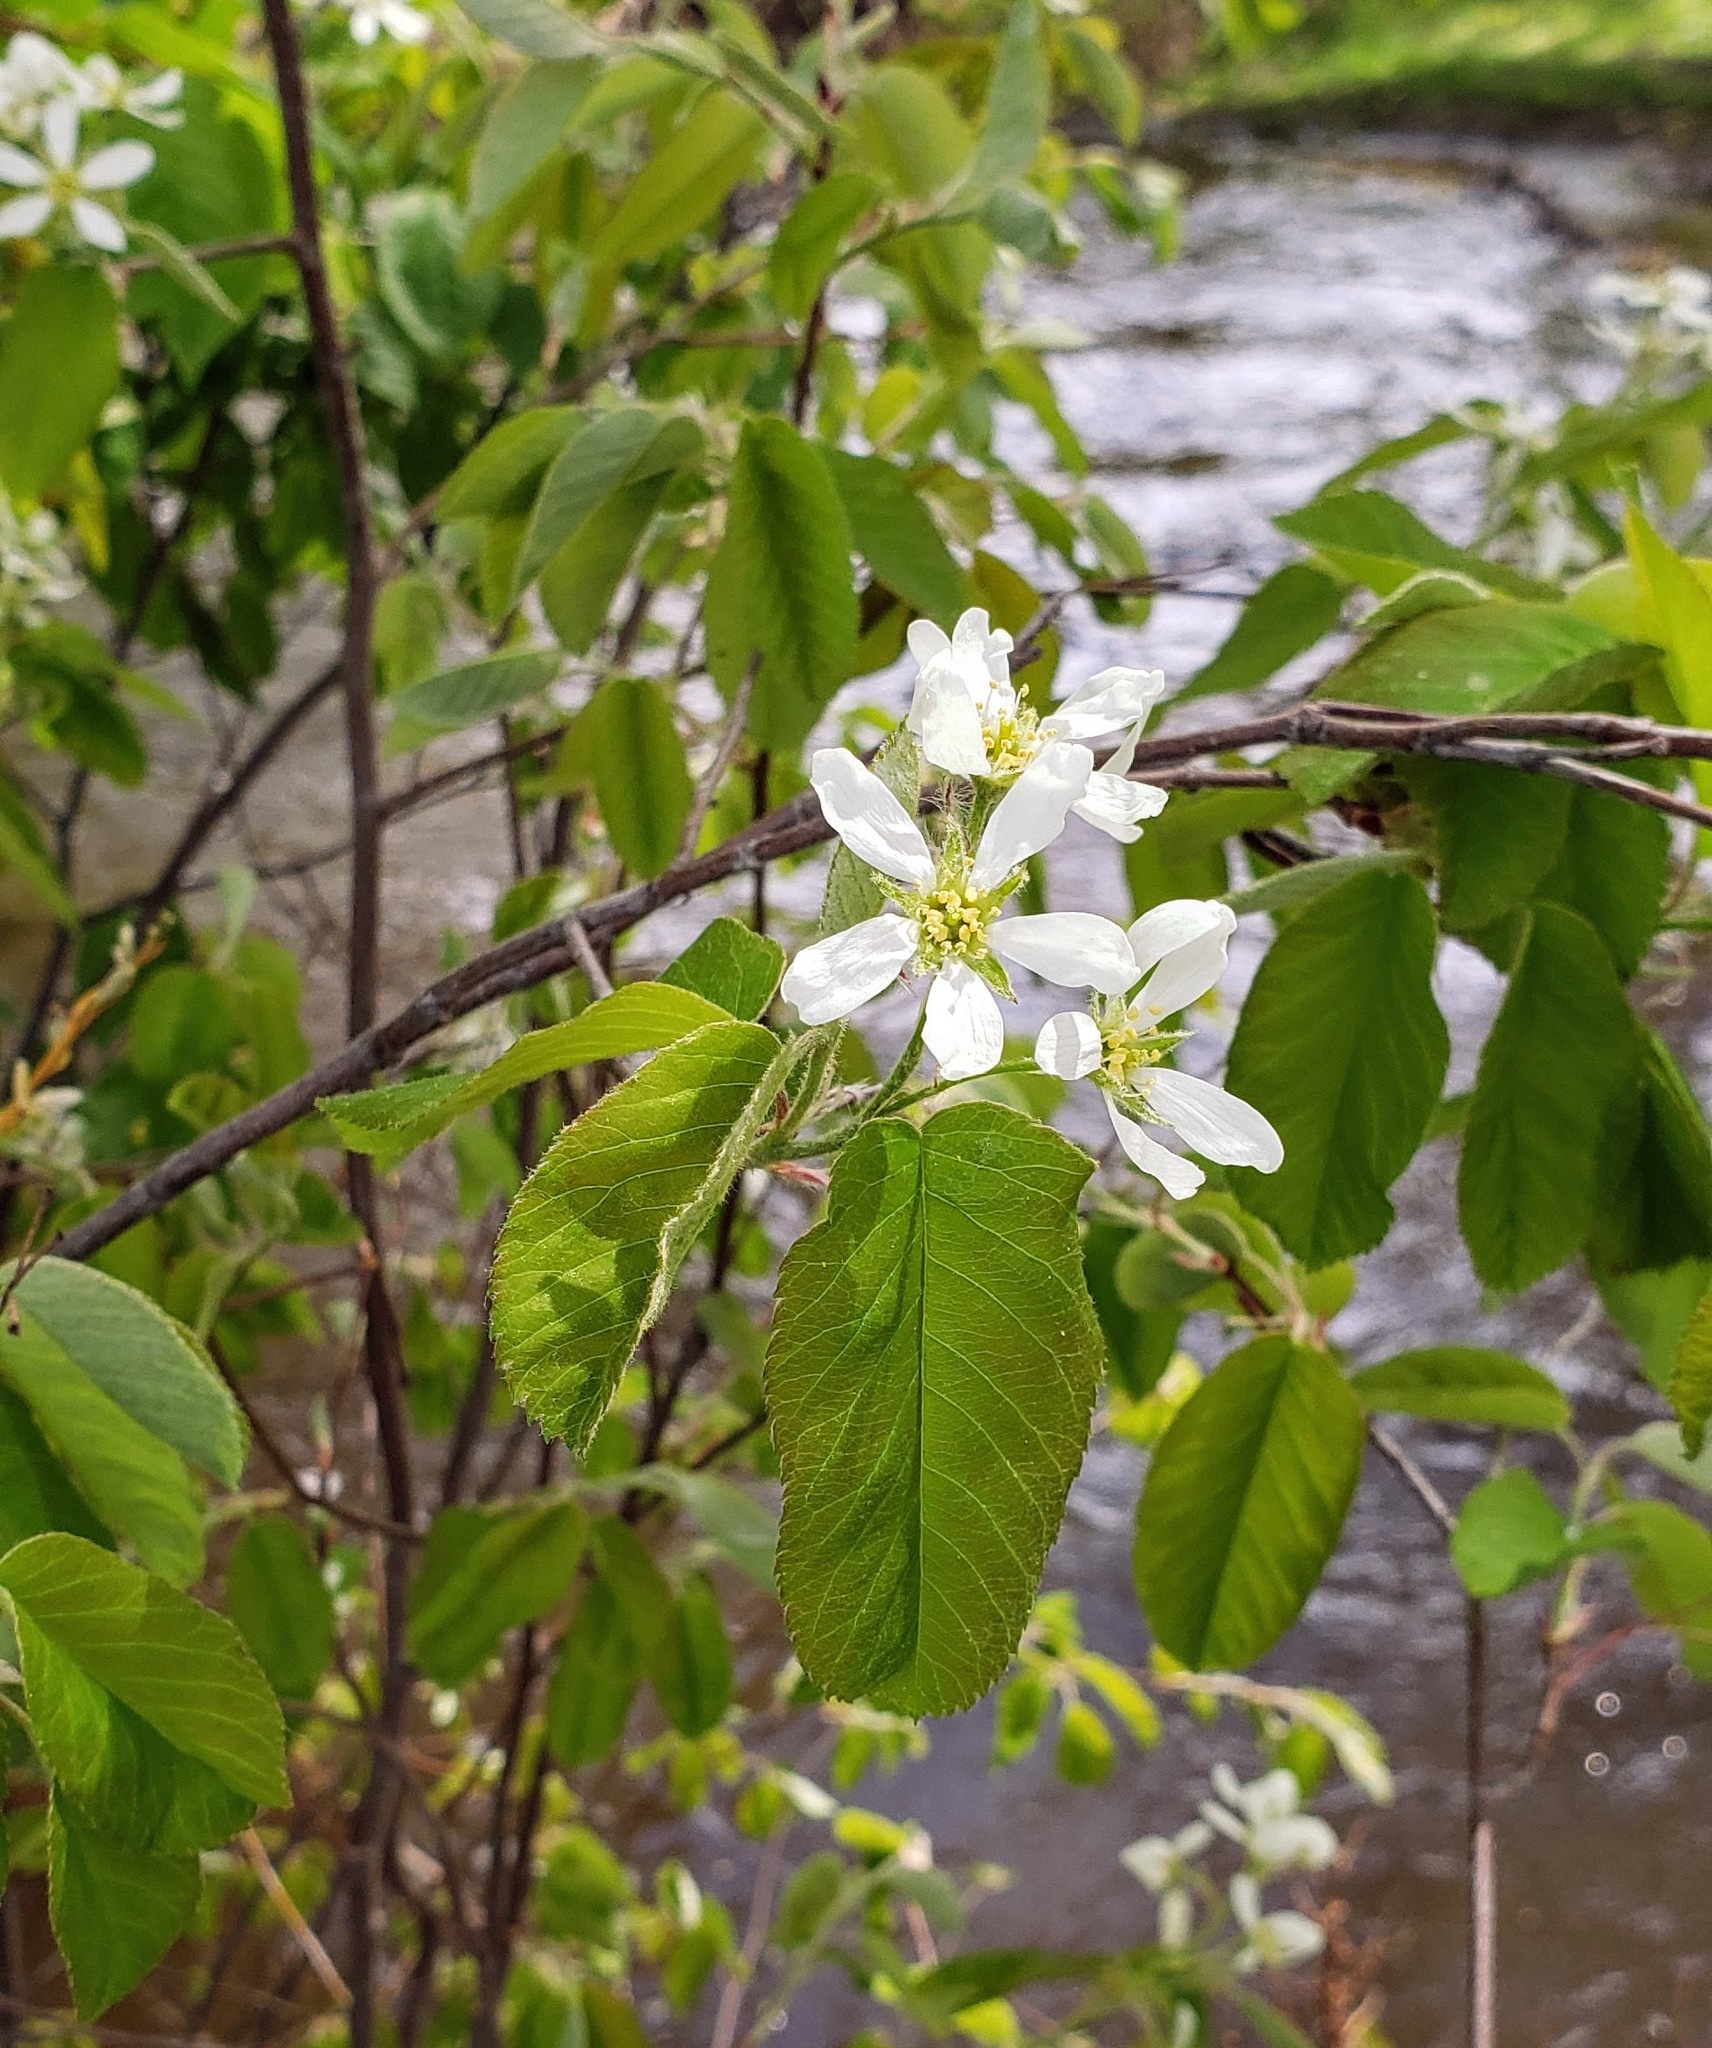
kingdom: Plantae
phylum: Tracheophyta
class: Magnoliopsida
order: Rosales
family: Rosaceae
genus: Amelanchier
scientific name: Amelanchier alnifolia
